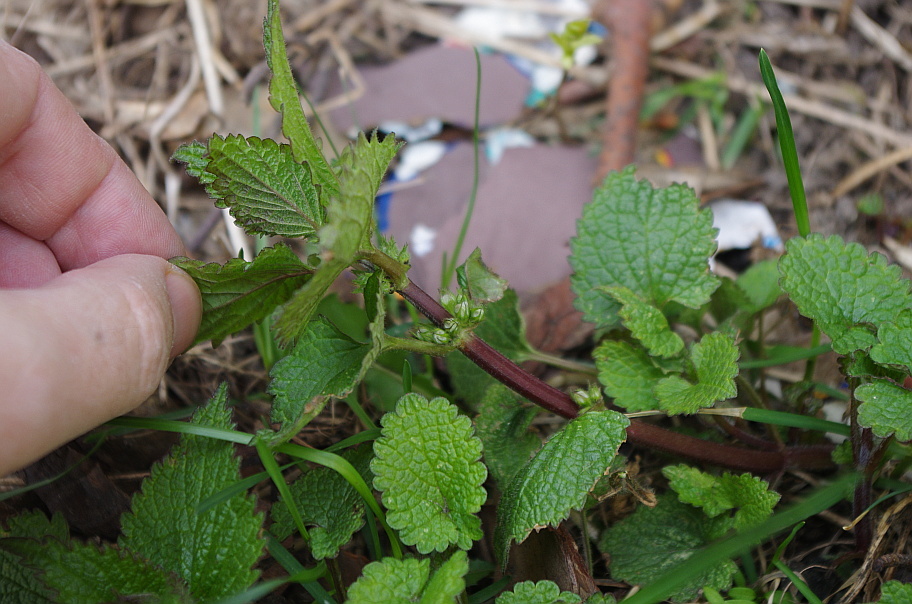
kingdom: Plantae
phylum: Tracheophyta
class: Magnoliopsida
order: Lamiales
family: Lamiaceae
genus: Lamium
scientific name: Lamium album
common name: White dead-nettle
